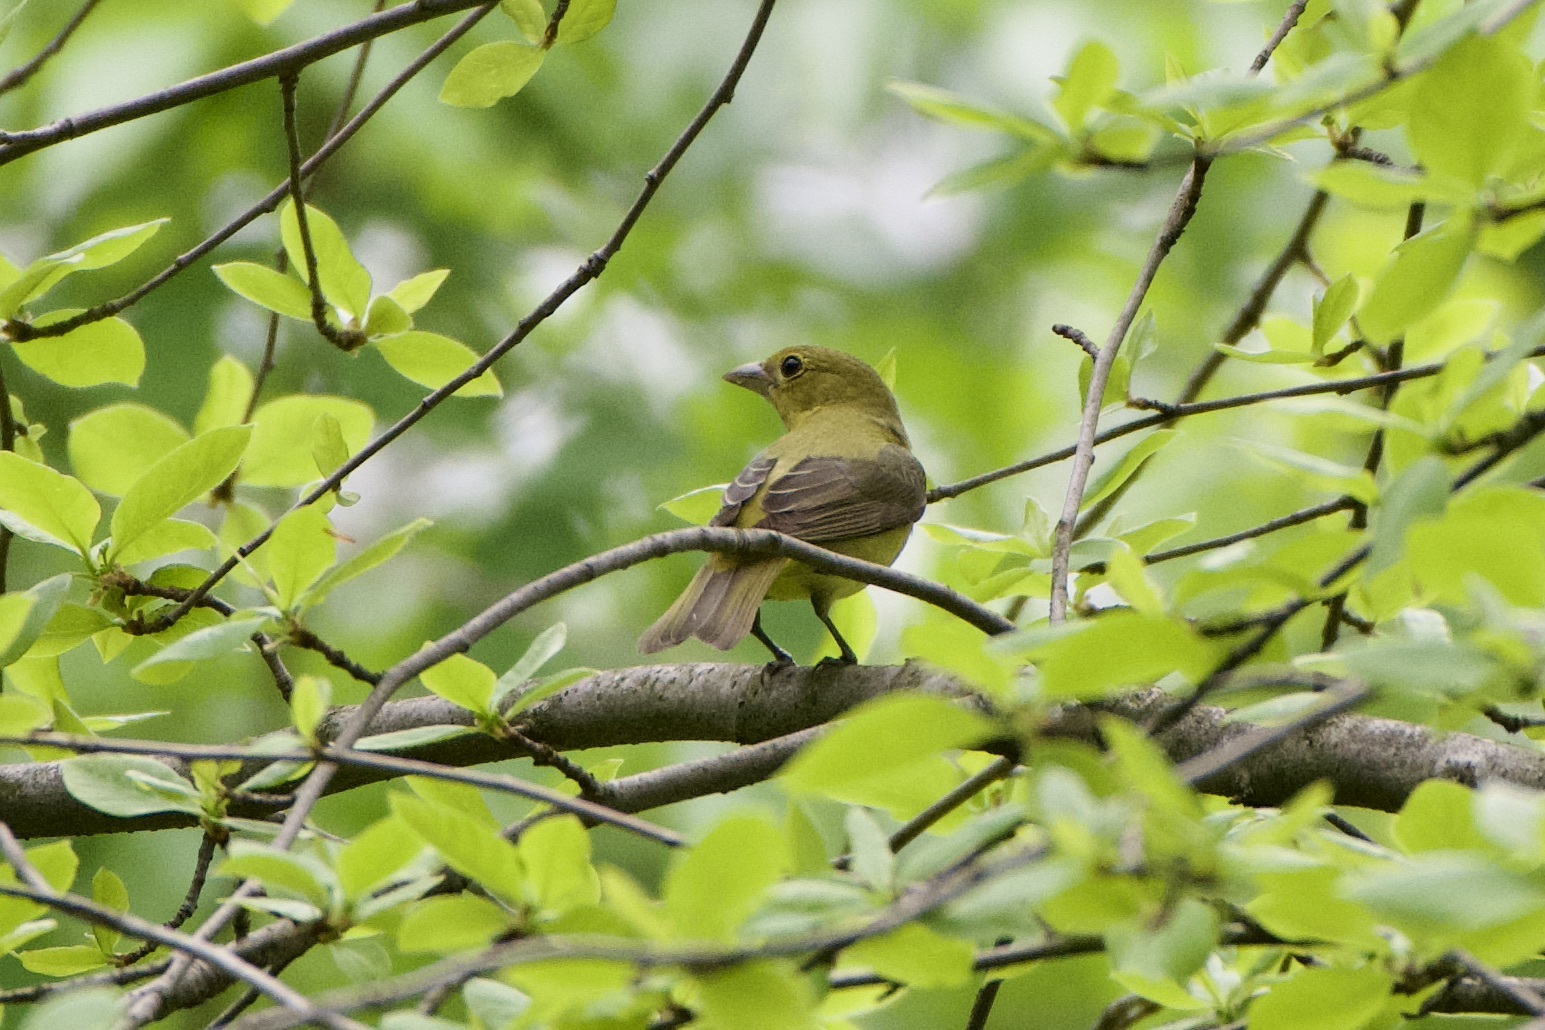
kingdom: Animalia
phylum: Chordata
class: Aves
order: Passeriformes
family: Cardinalidae
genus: Piranga
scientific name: Piranga olivacea
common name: Scarlet tanager
